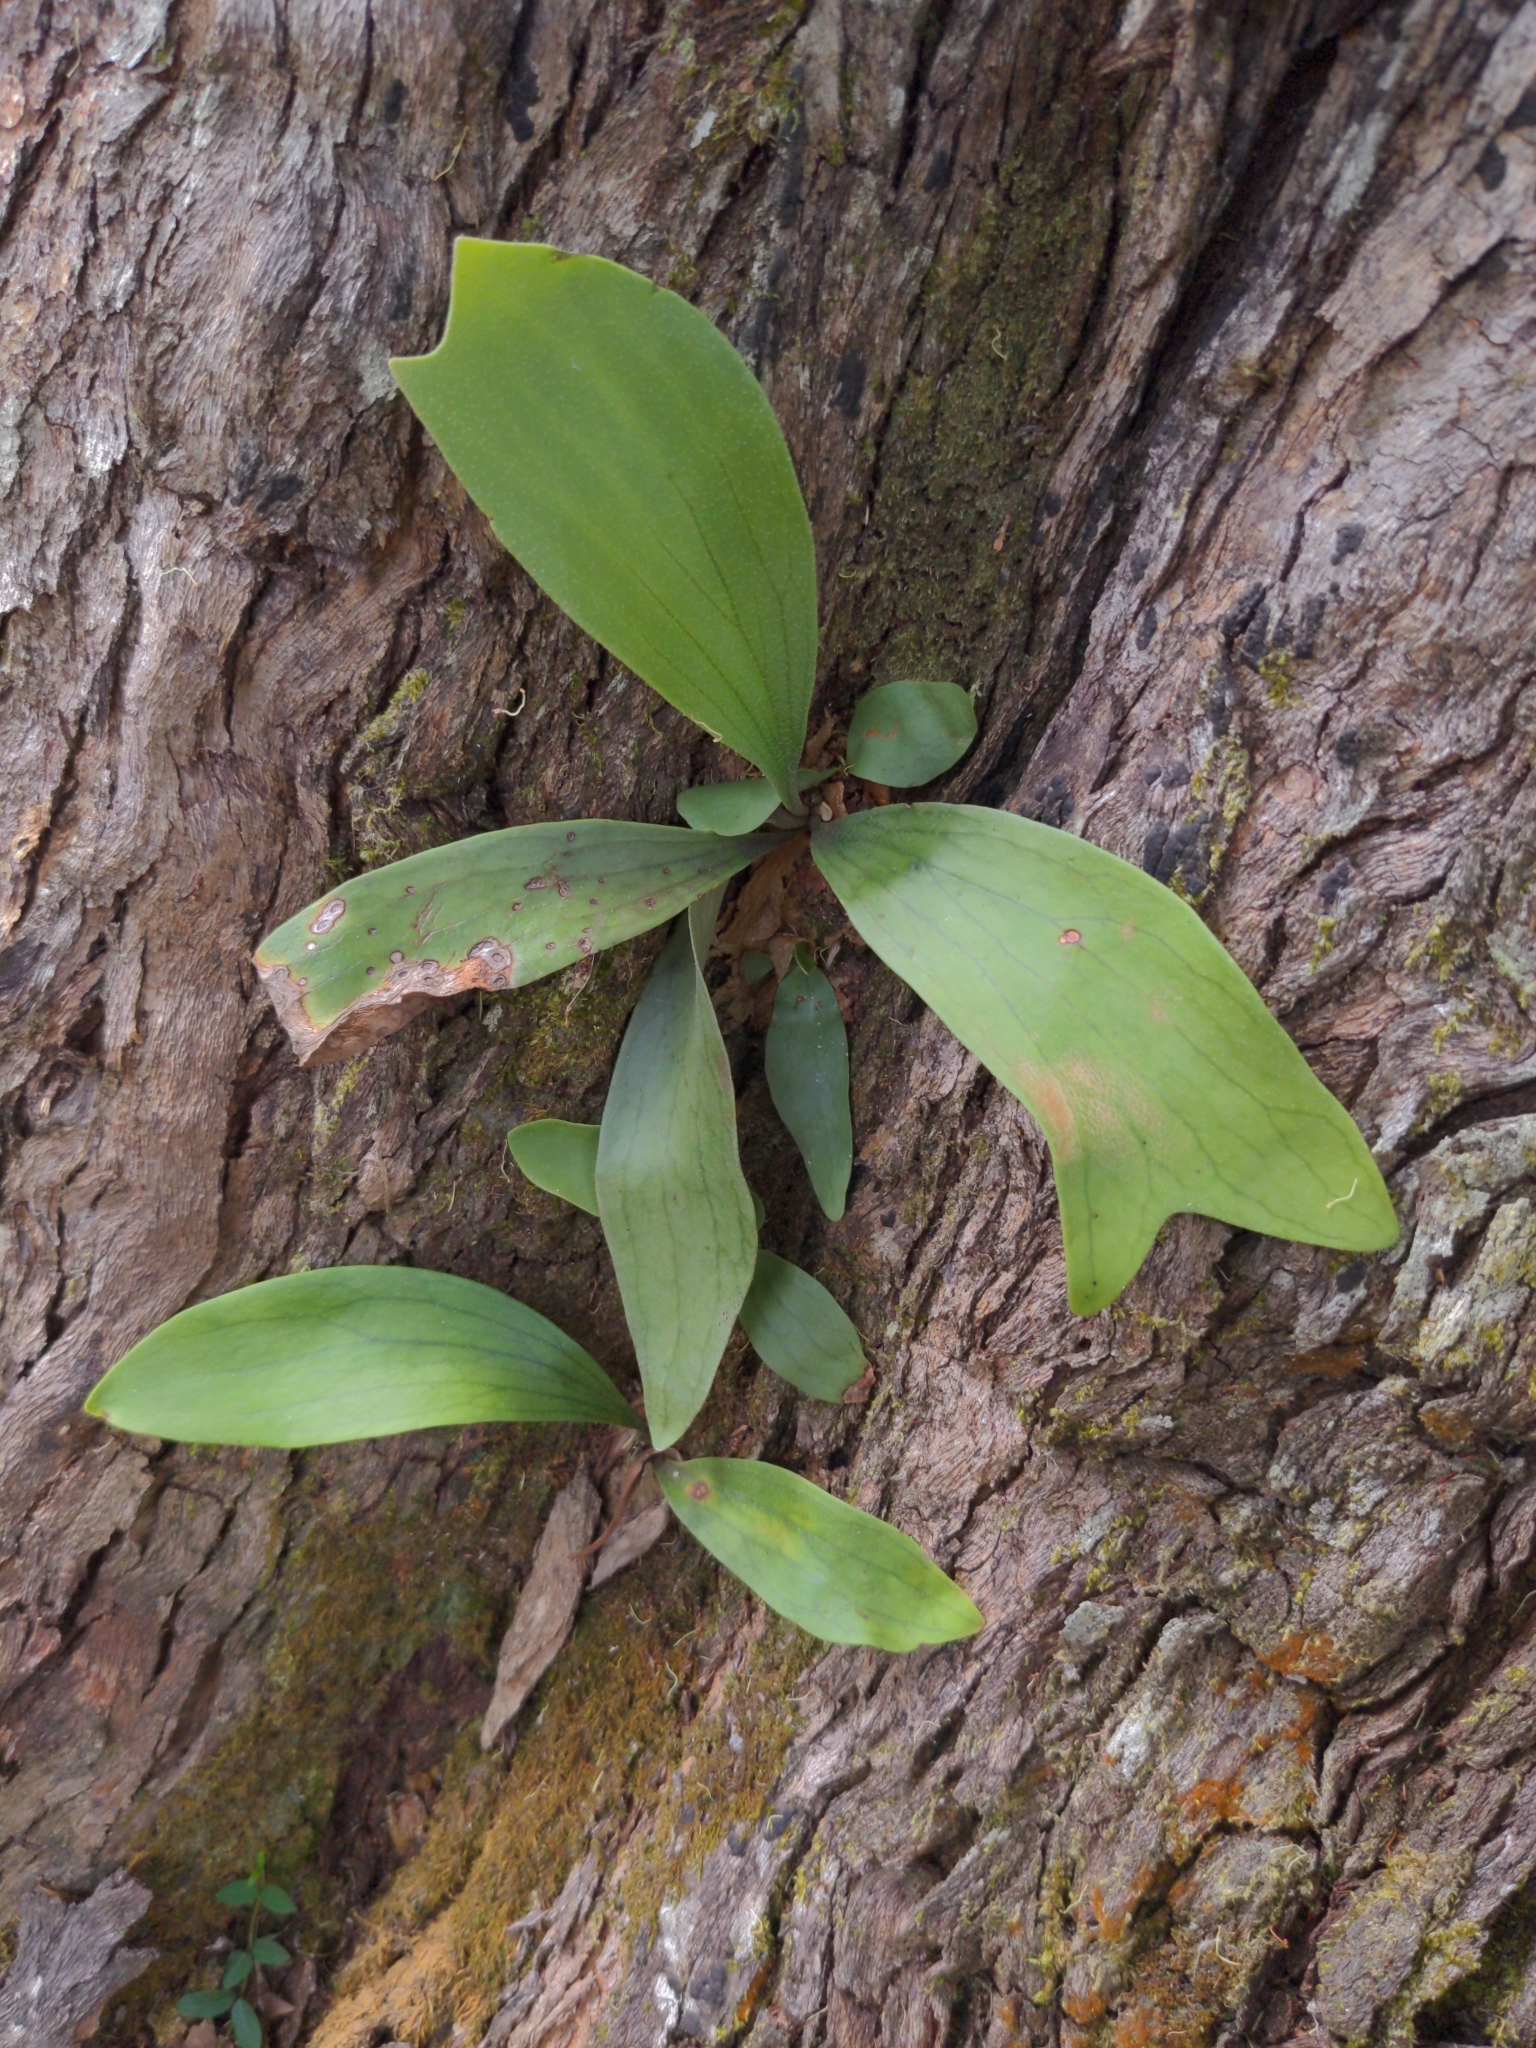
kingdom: Plantae
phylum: Tracheophyta
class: Polypodiopsida
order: Polypodiales
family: Polypodiaceae
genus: Platycerium
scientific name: Platycerium bifurcatum
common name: Elkhorn fern
